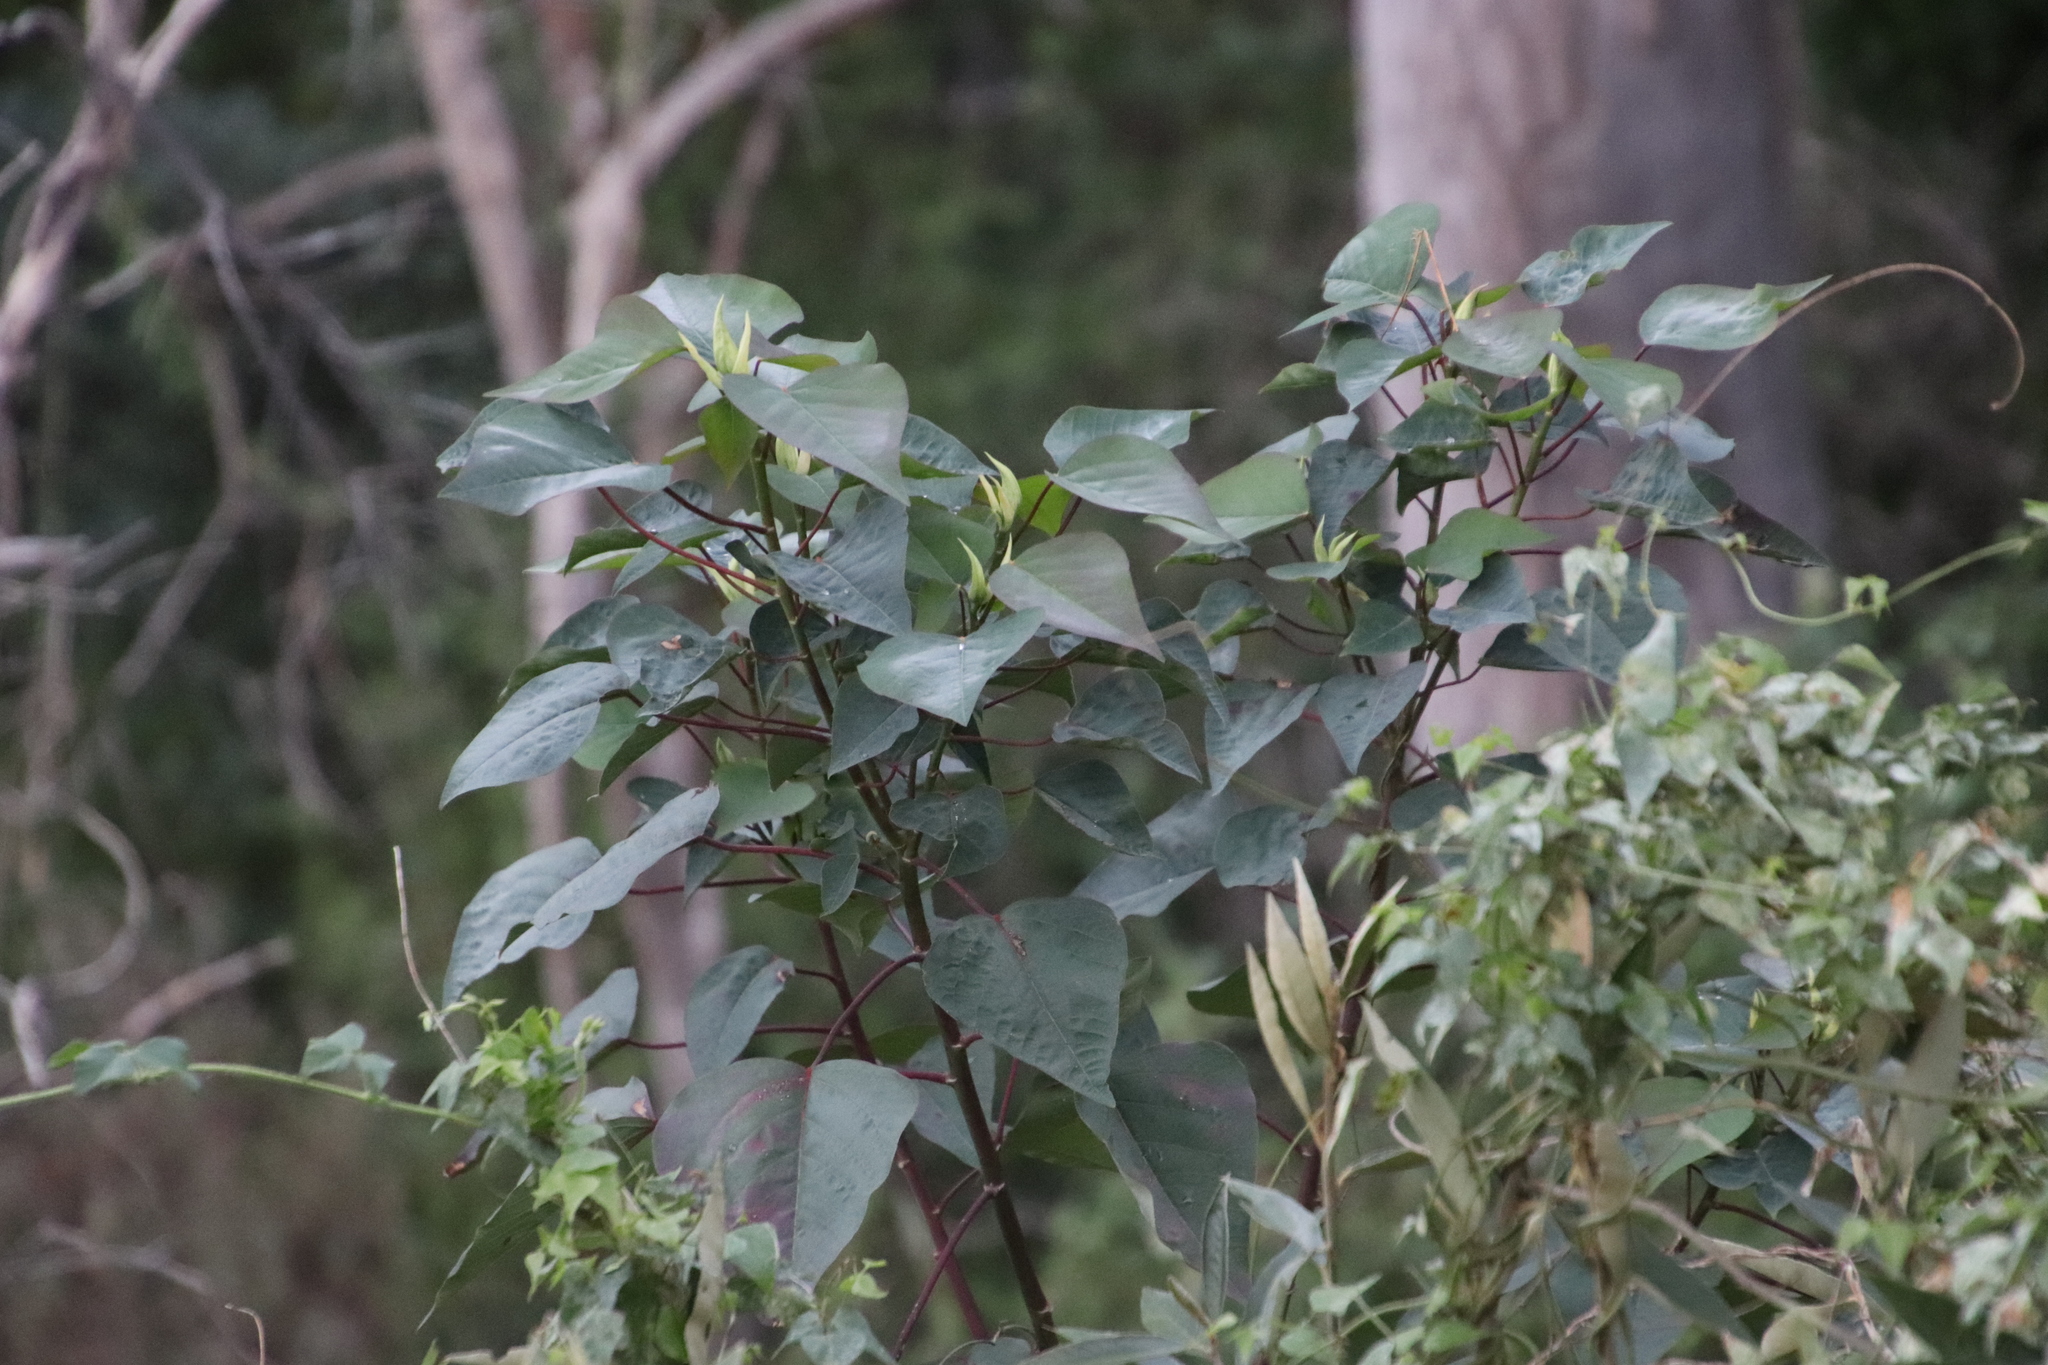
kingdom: Plantae
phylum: Tracheophyta
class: Magnoliopsida
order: Malpighiales
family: Euphorbiaceae
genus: Homalanthus
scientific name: Homalanthus populifolius
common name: Queensland poplar
